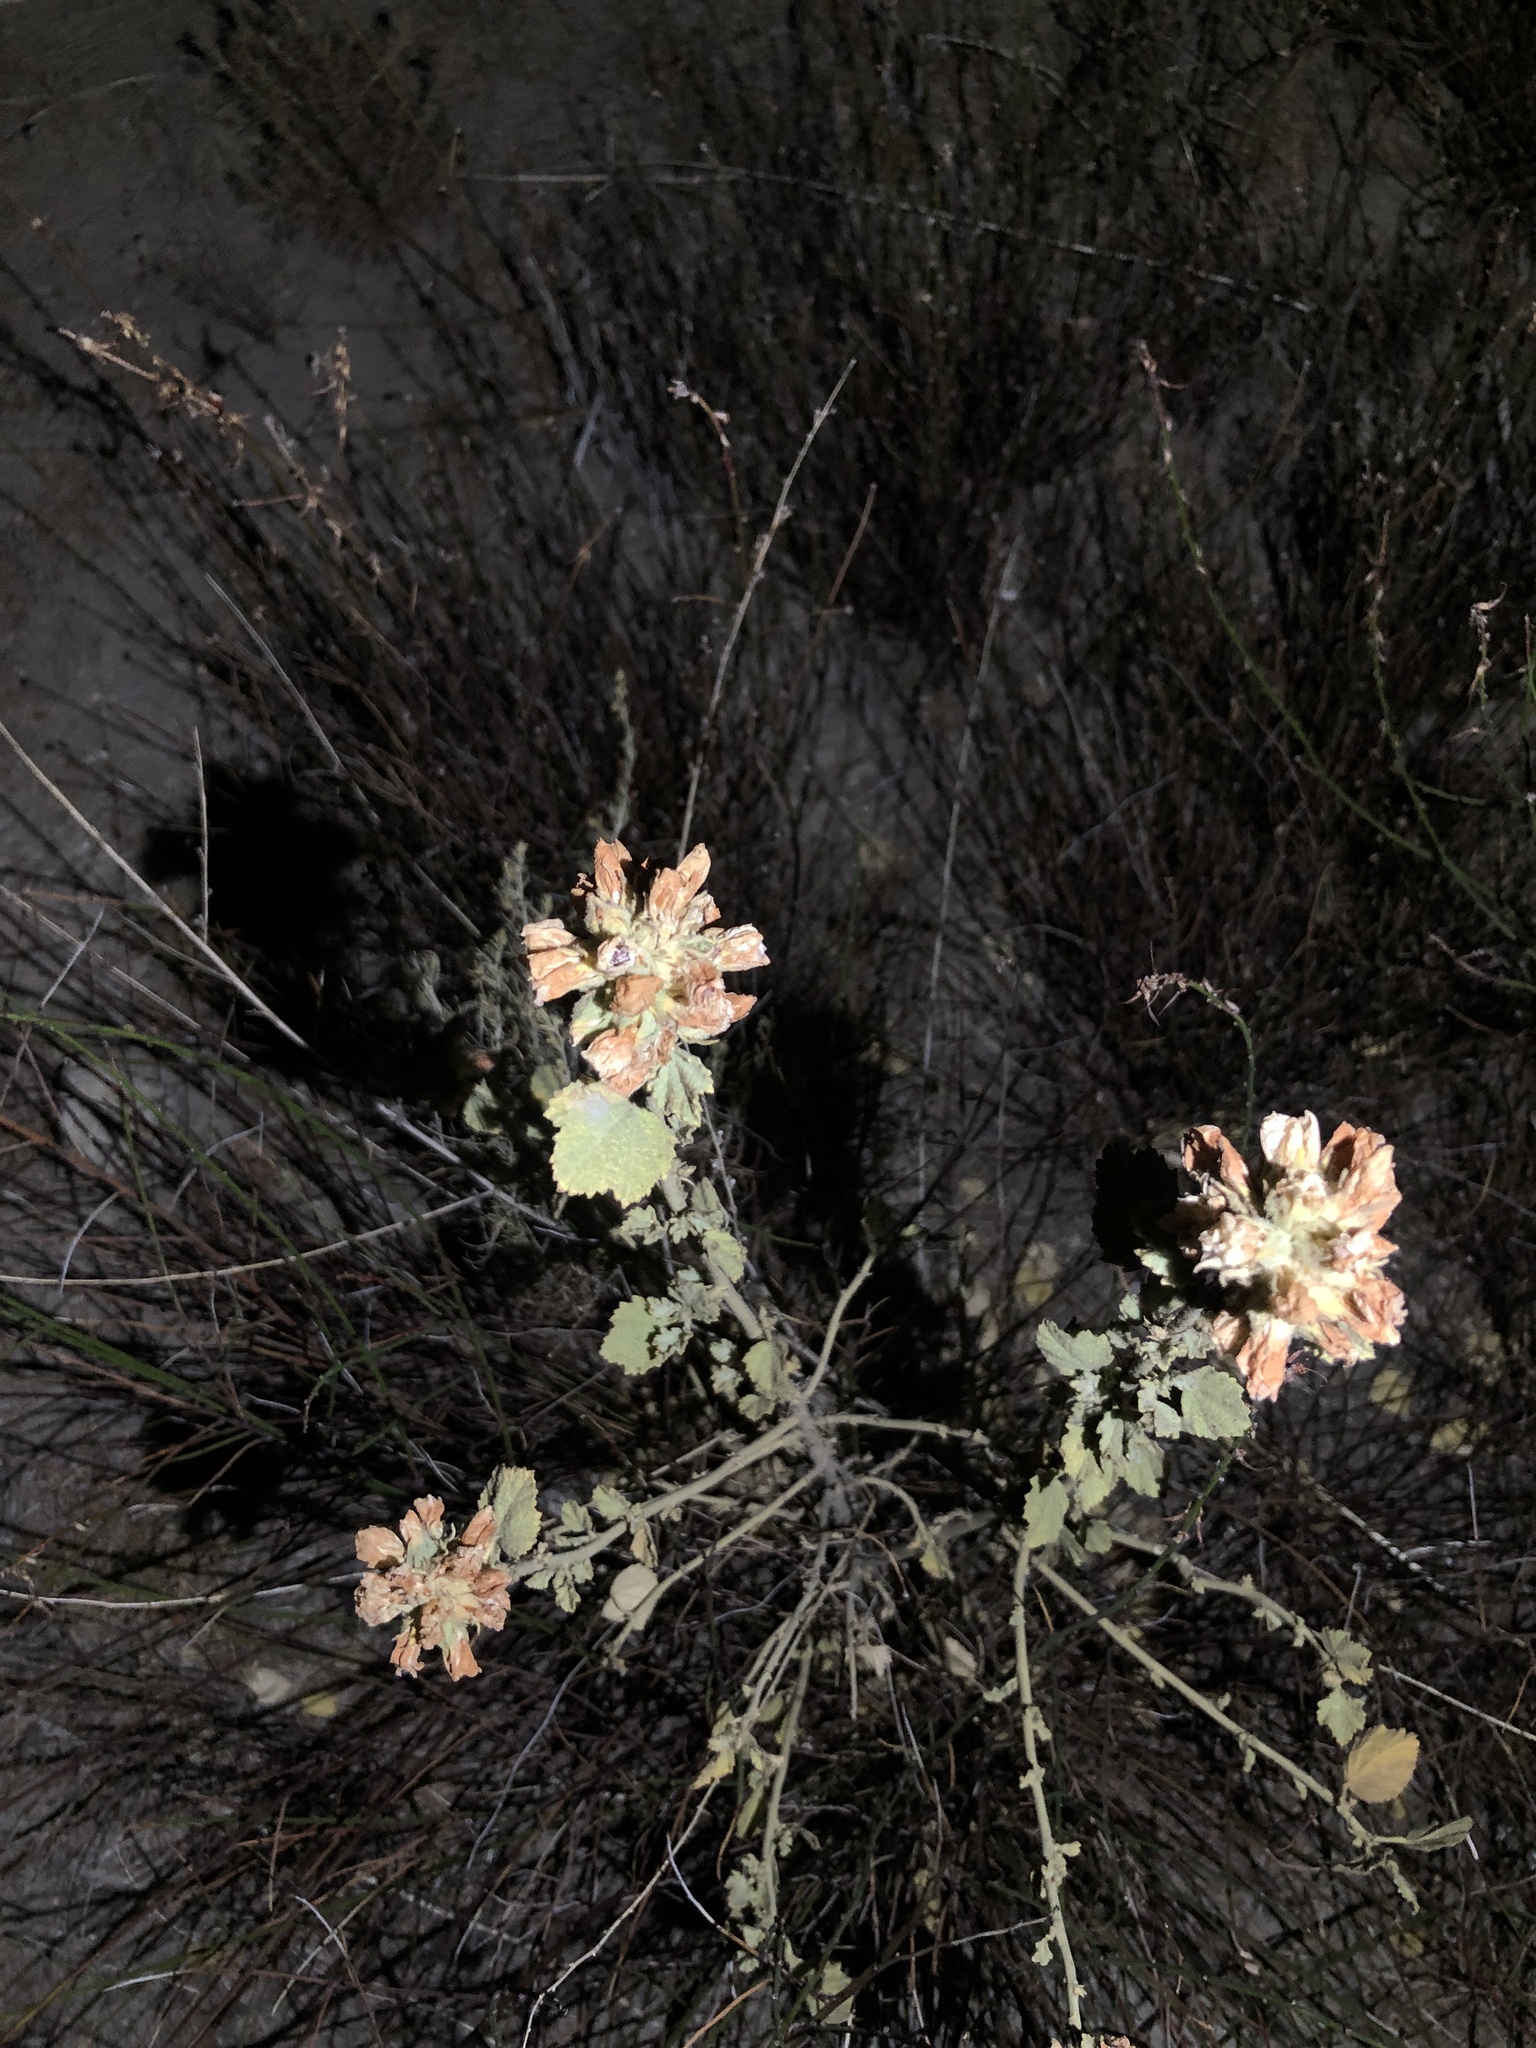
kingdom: Plantae
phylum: Tracheophyta
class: Magnoliopsida
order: Malvales
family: Malvaceae
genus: Malacothamnus
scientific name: Malacothamnus marrubioides
